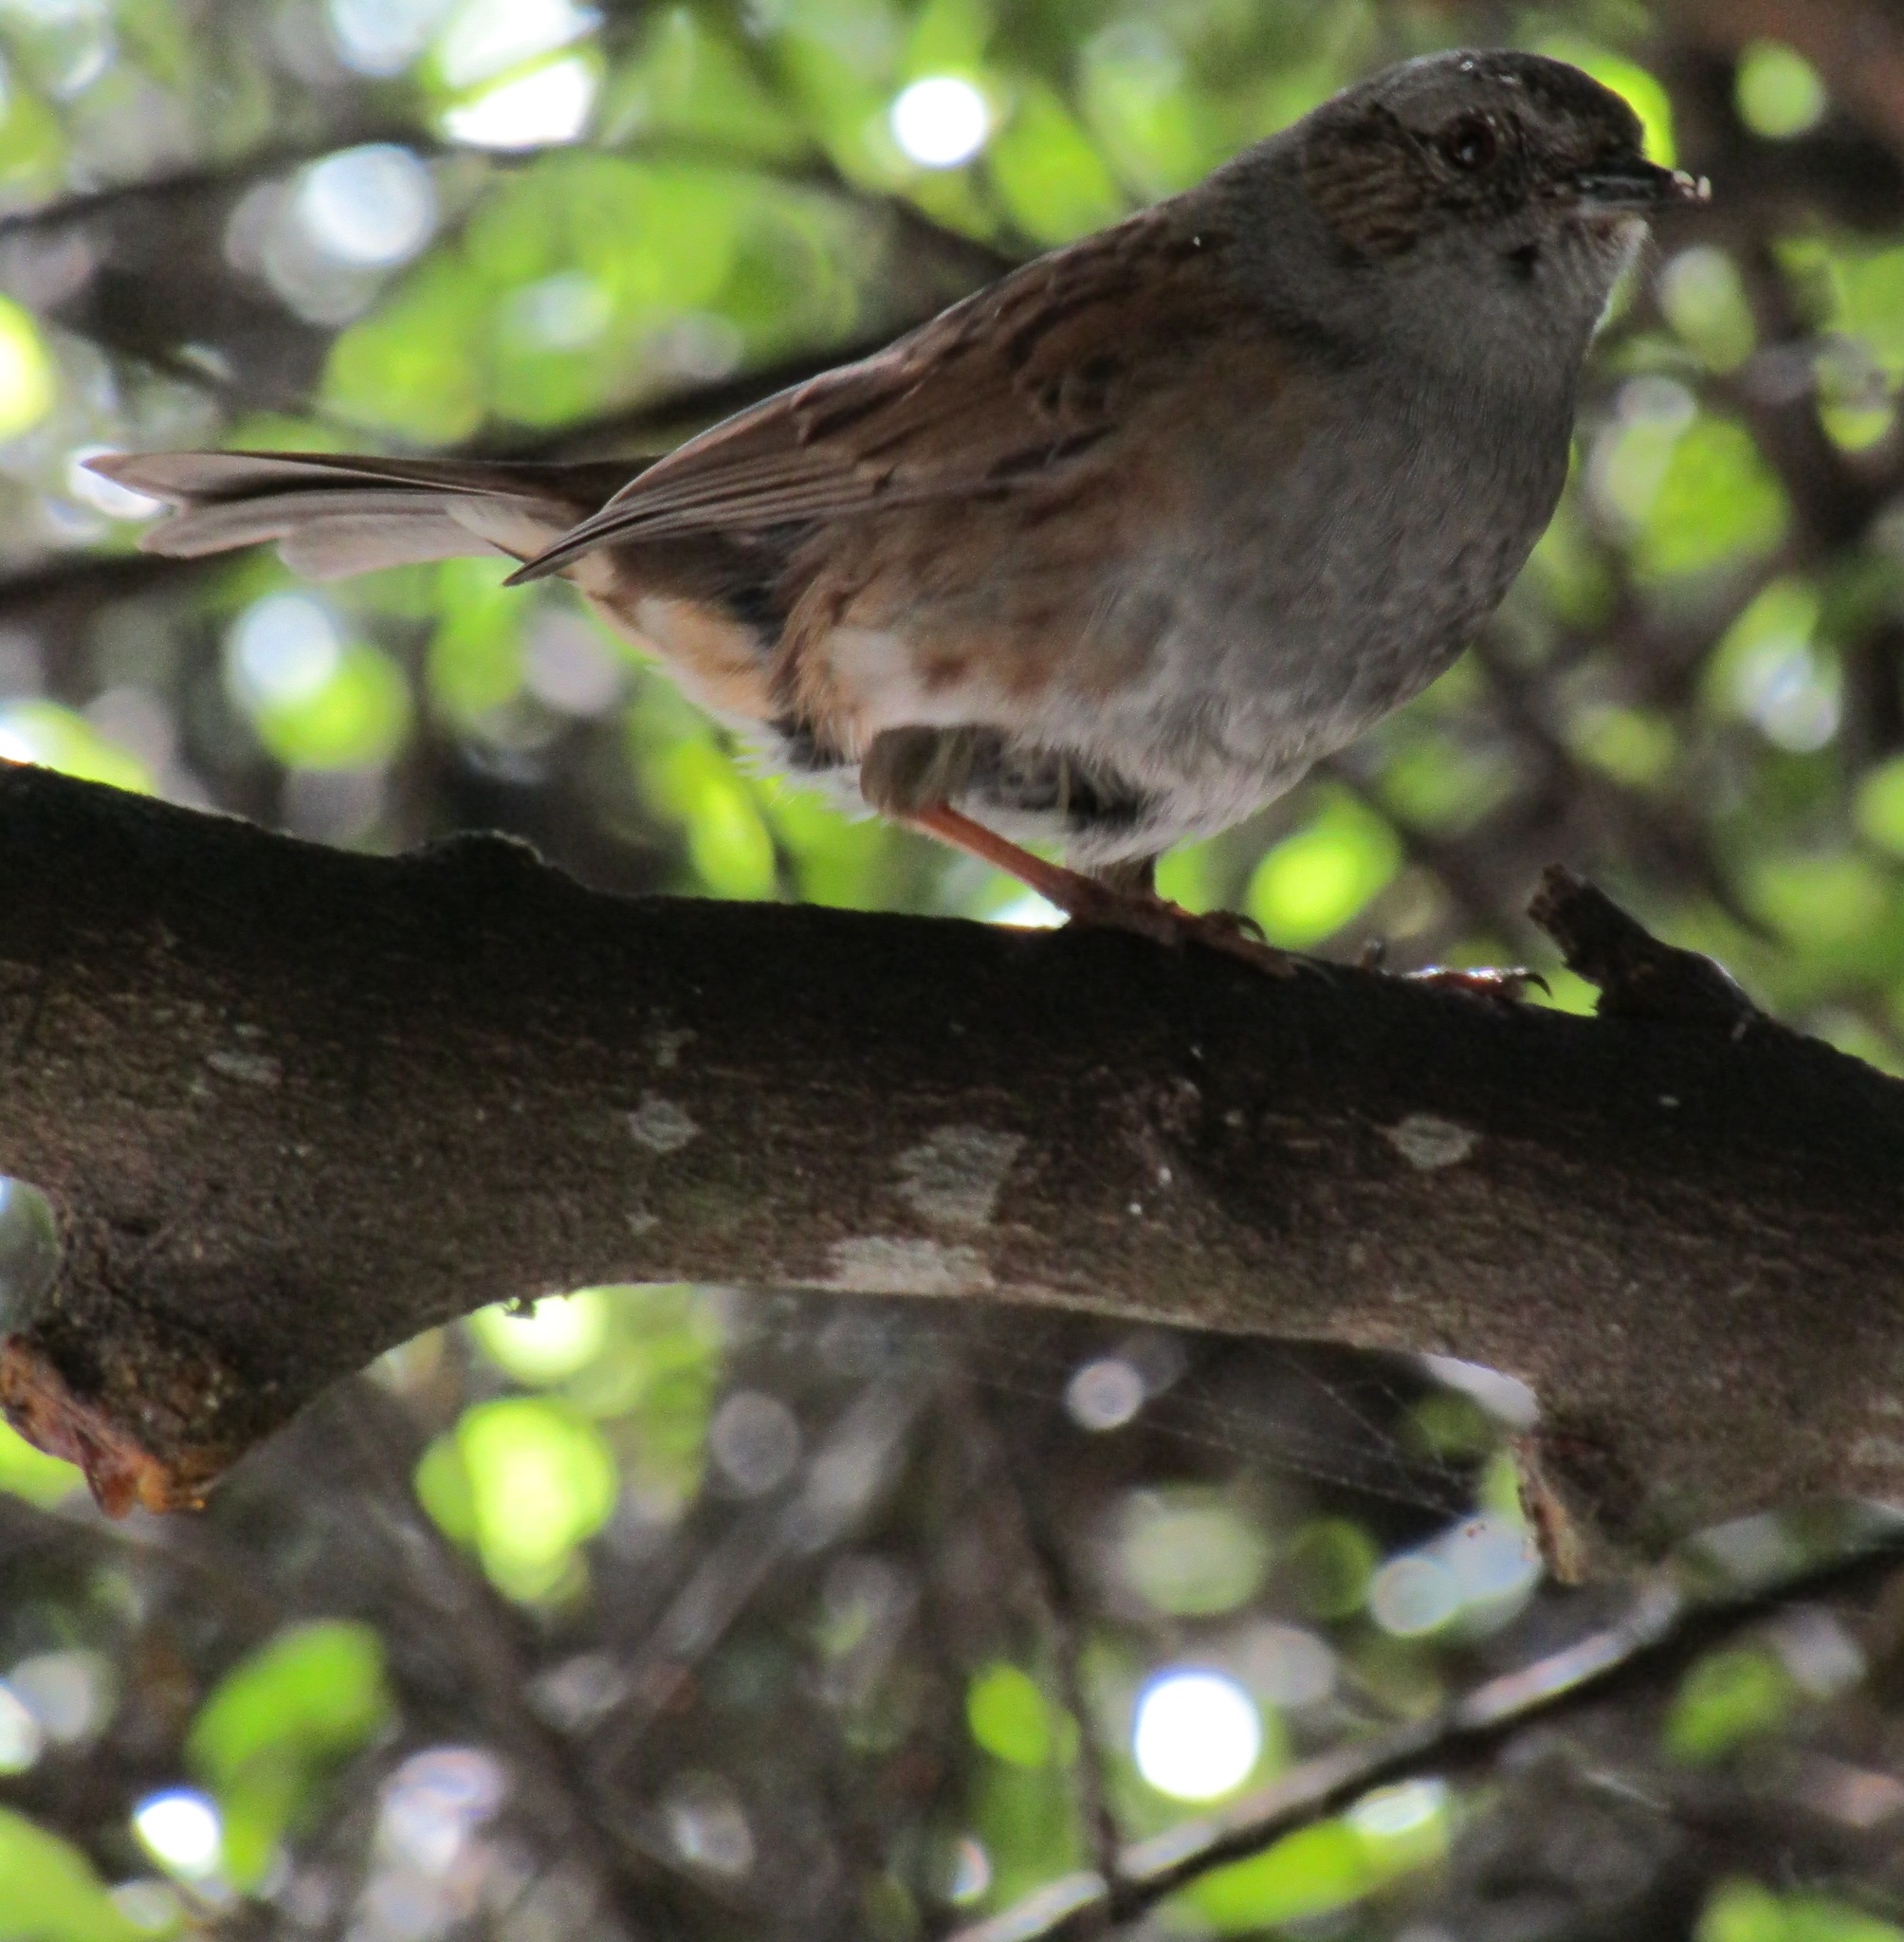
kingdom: Animalia
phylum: Chordata
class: Aves
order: Passeriformes
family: Prunellidae
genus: Prunella
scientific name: Prunella modularis
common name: Dunnock
